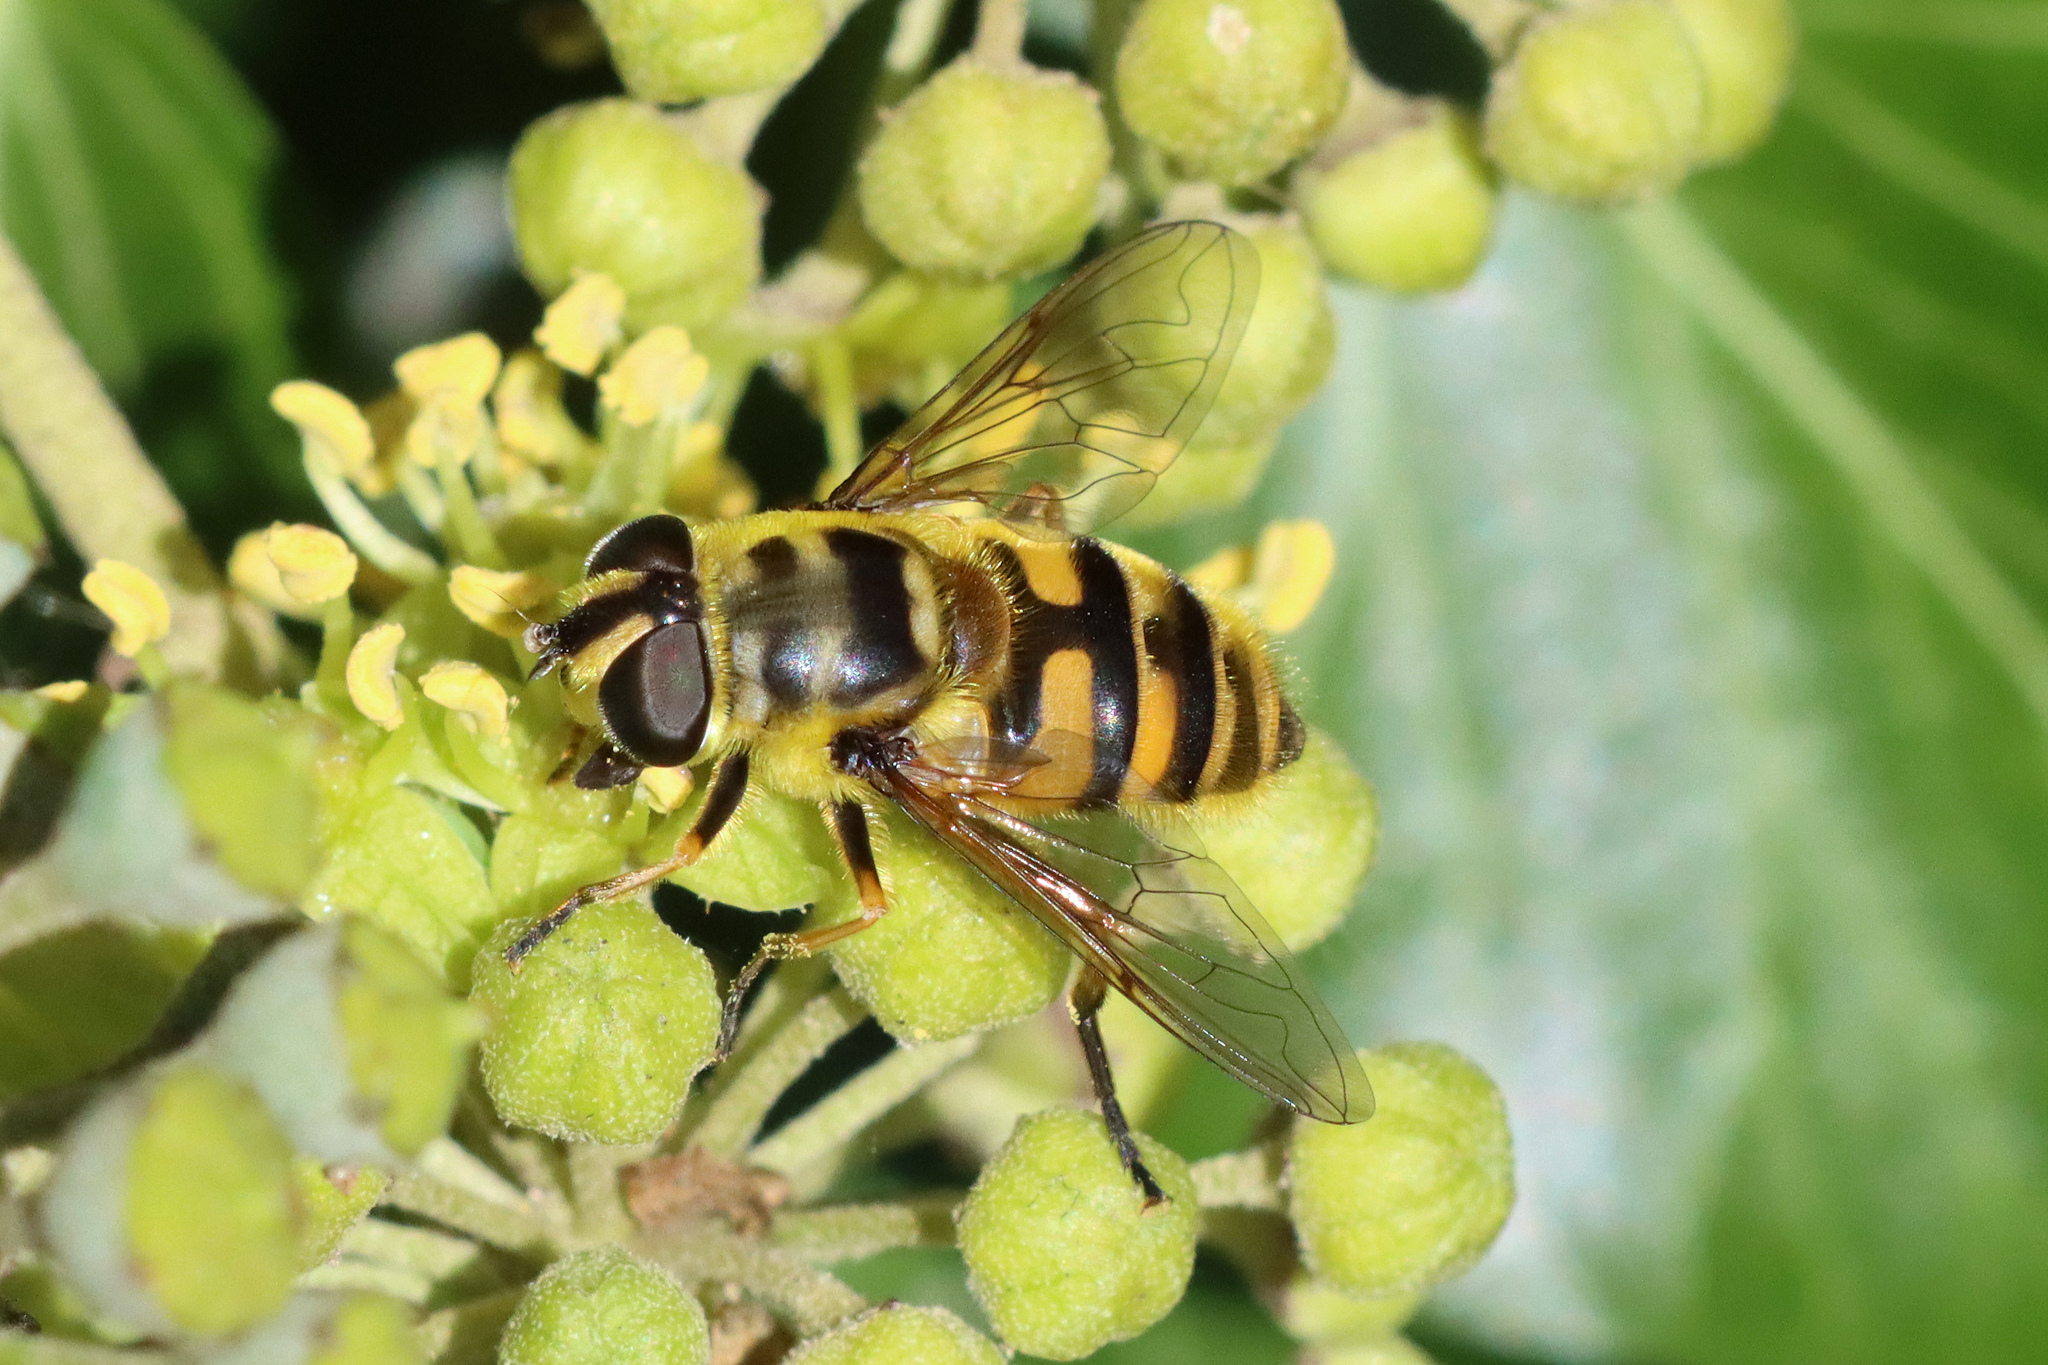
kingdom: Animalia
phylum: Arthropoda
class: Insecta
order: Diptera
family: Syrphidae
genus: Myathropa
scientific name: Myathropa florea
